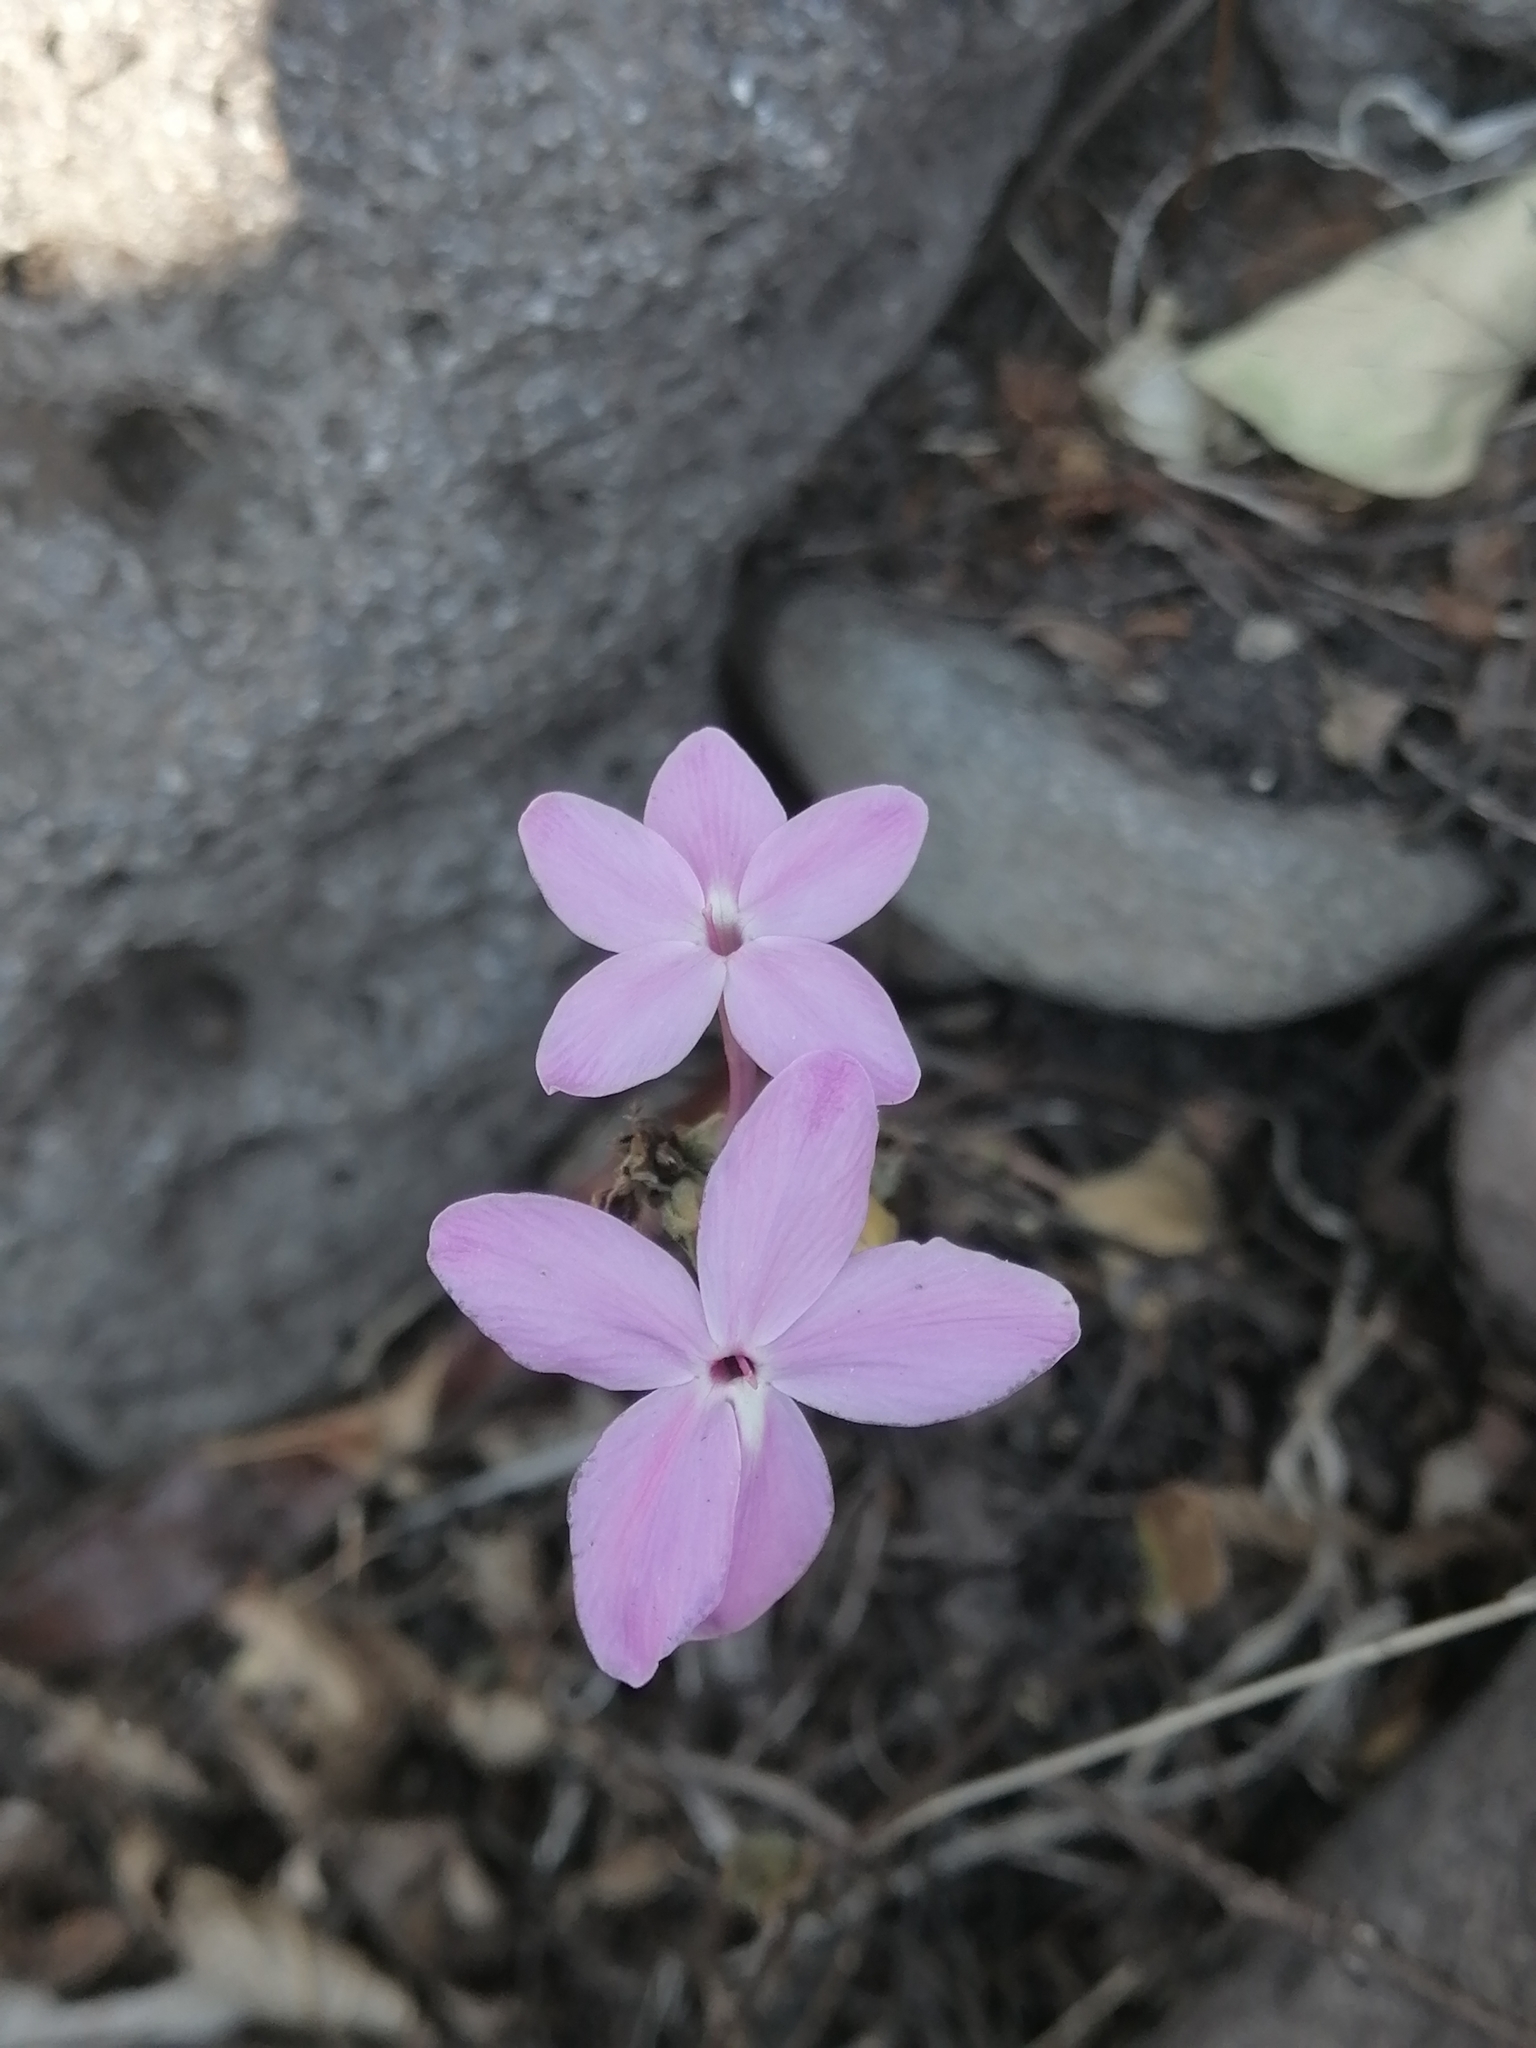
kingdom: Plantae
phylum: Tracheophyta
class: Magnoliopsida
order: Lamiales
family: Acanthaceae
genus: Pseuderanthemum
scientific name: Pseuderanthemum praecox
